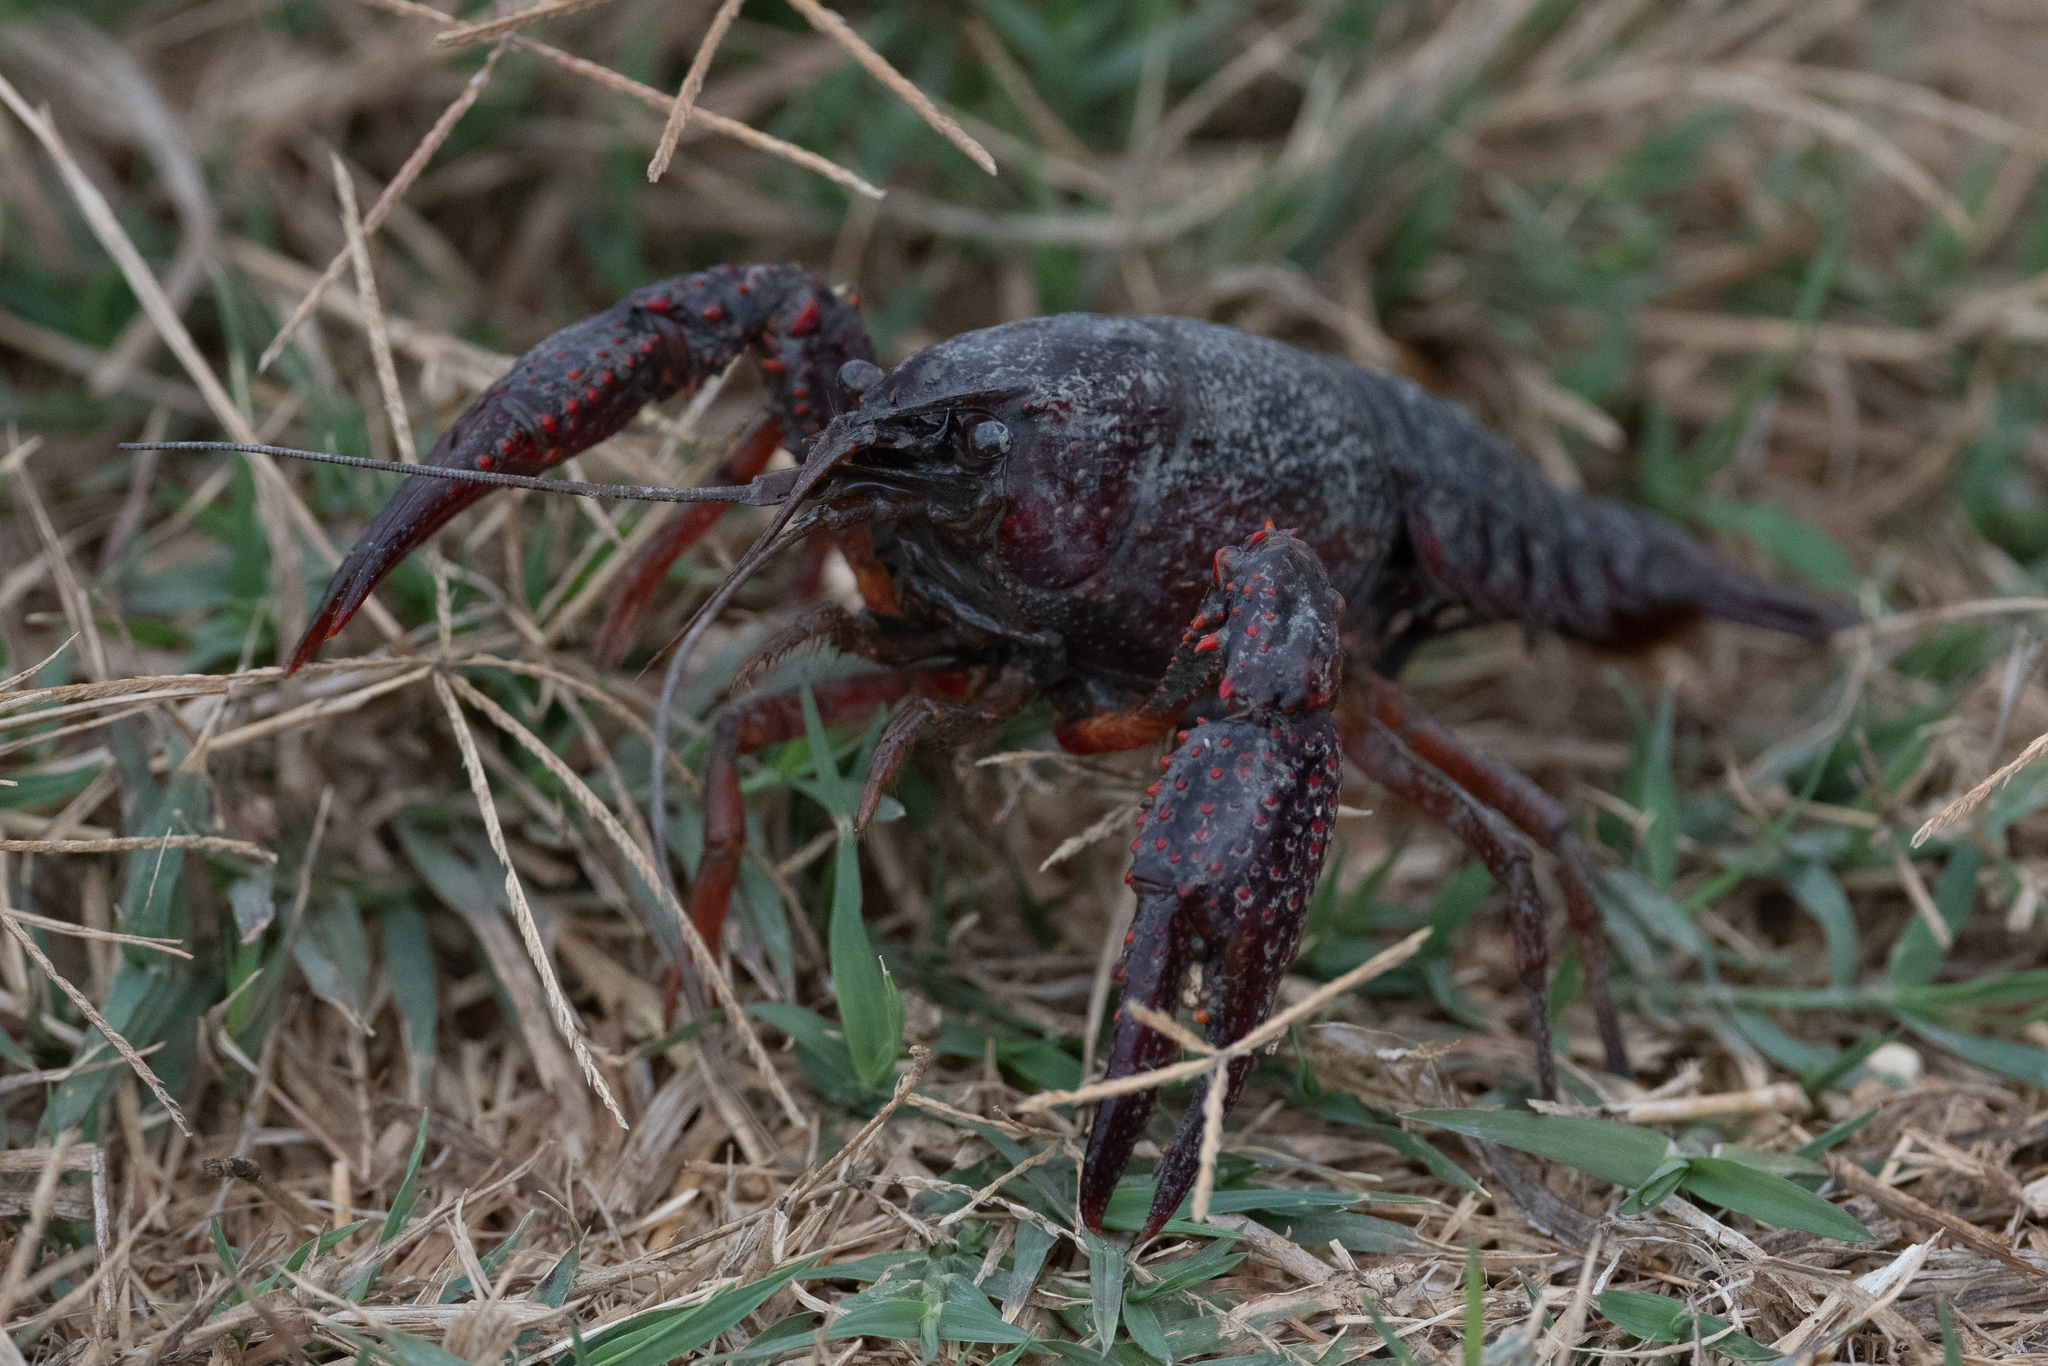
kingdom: Animalia
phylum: Arthropoda
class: Malacostraca
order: Decapoda
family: Cambaridae
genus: Procambarus
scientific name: Procambarus clarkii
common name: Red swamp crayfish
